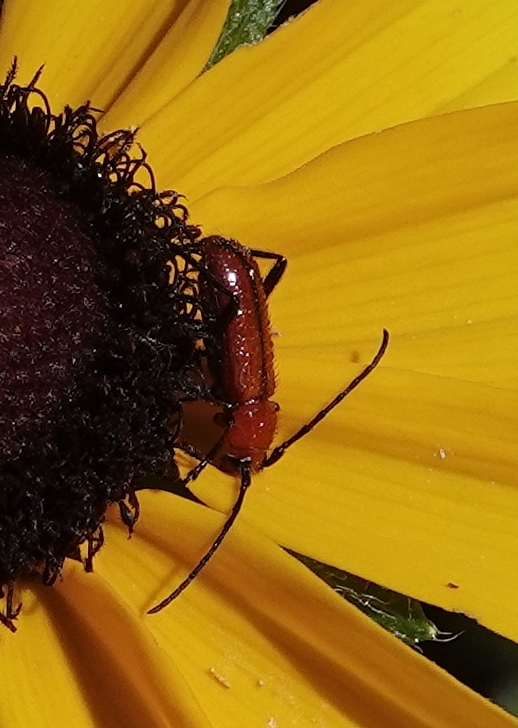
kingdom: Animalia
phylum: Arthropoda
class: Insecta
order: Coleoptera
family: Cerambycidae
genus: Batyle
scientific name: Batyle suturalis
